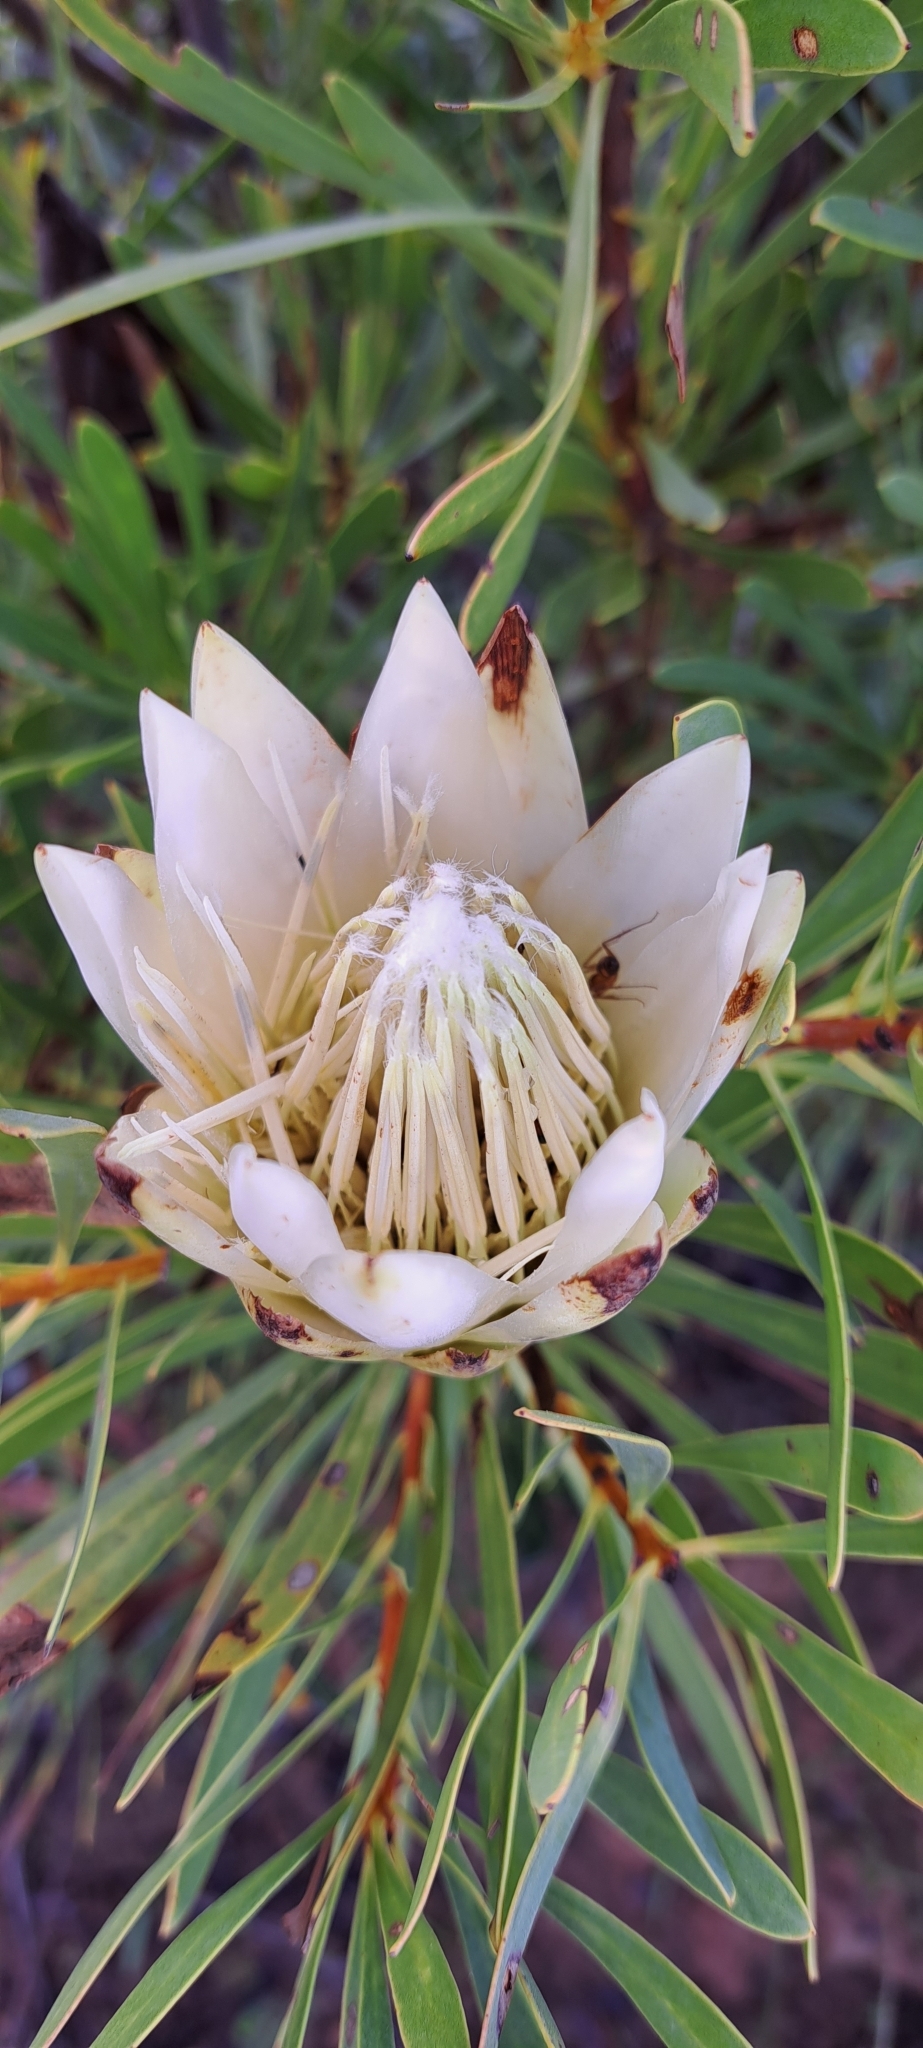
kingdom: Plantae
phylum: Tracheophyta
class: Magnoliopsida
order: Proteales
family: Proteaceae
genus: Protea
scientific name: Protea repens
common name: Sugarbush
